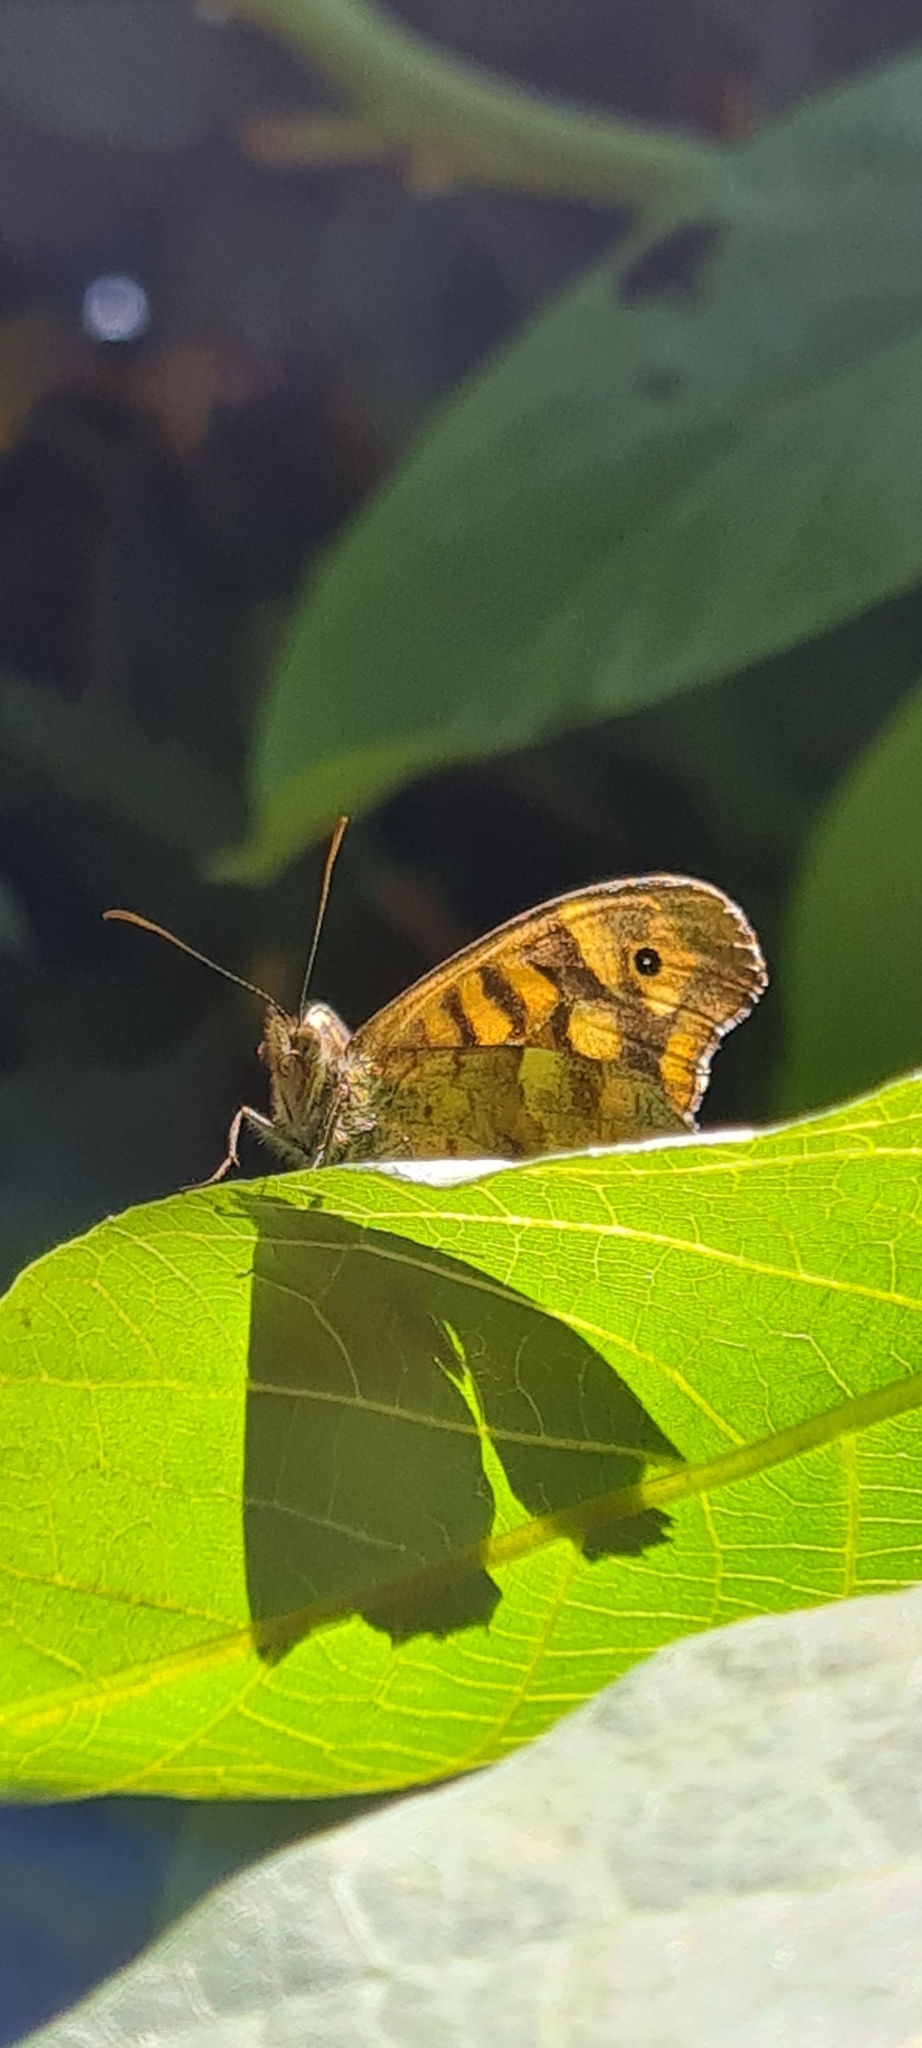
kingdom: Animalia
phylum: Arthropoda
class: Insecta
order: Lepidoptera
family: Nymphalidae
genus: Pararge
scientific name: Pararge aegeria
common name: Speckled wood
